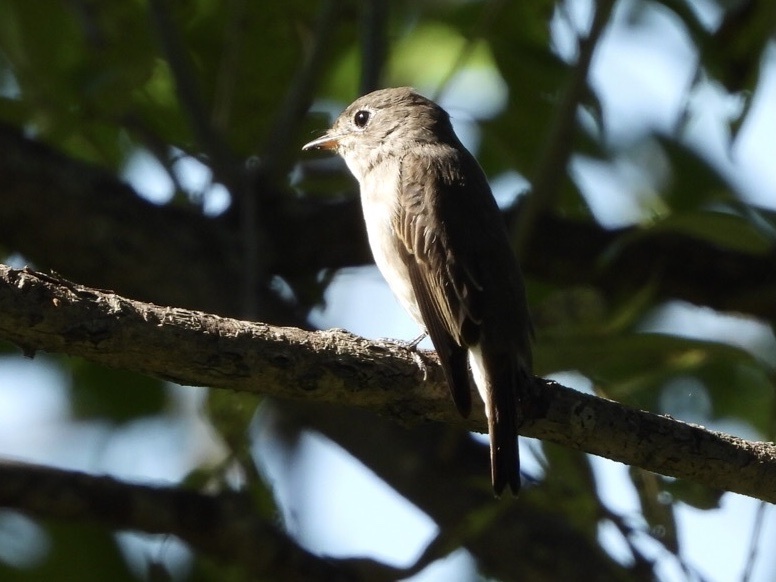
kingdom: Animalia
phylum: Chordata
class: Aves
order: Passeriformes
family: Muscicapidae
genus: Muscicapa
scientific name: Muscicapa latirostris
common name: Asian brown flycatcher
